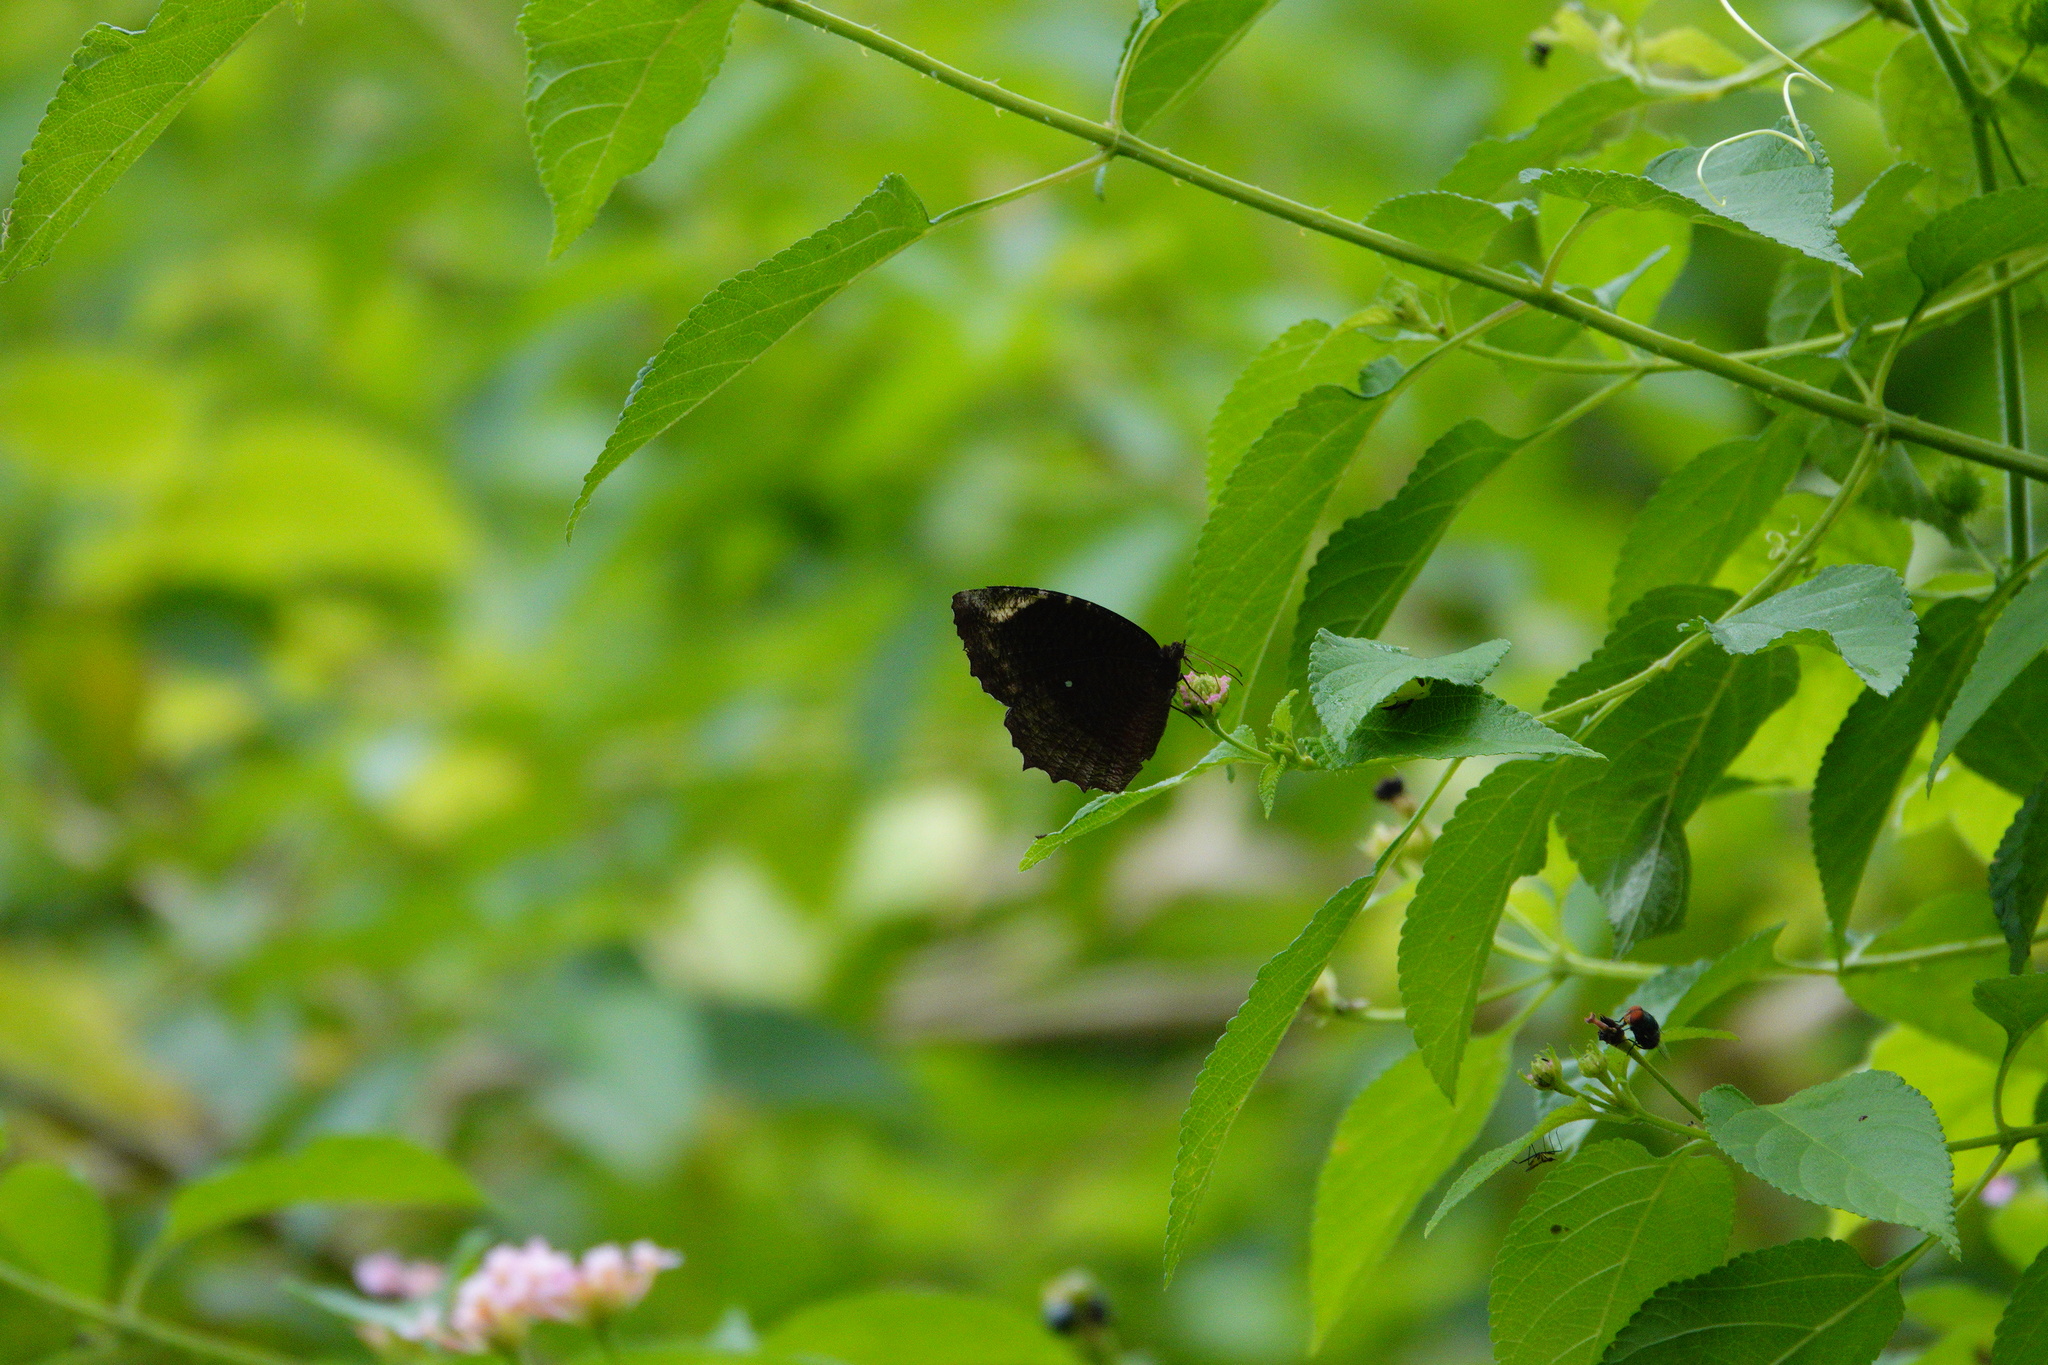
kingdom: Animalia
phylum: Arthropoda
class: Insecta
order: Lepidoptera
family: Nymphalidae
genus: Elymnias
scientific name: Elymnias hypermnestra
